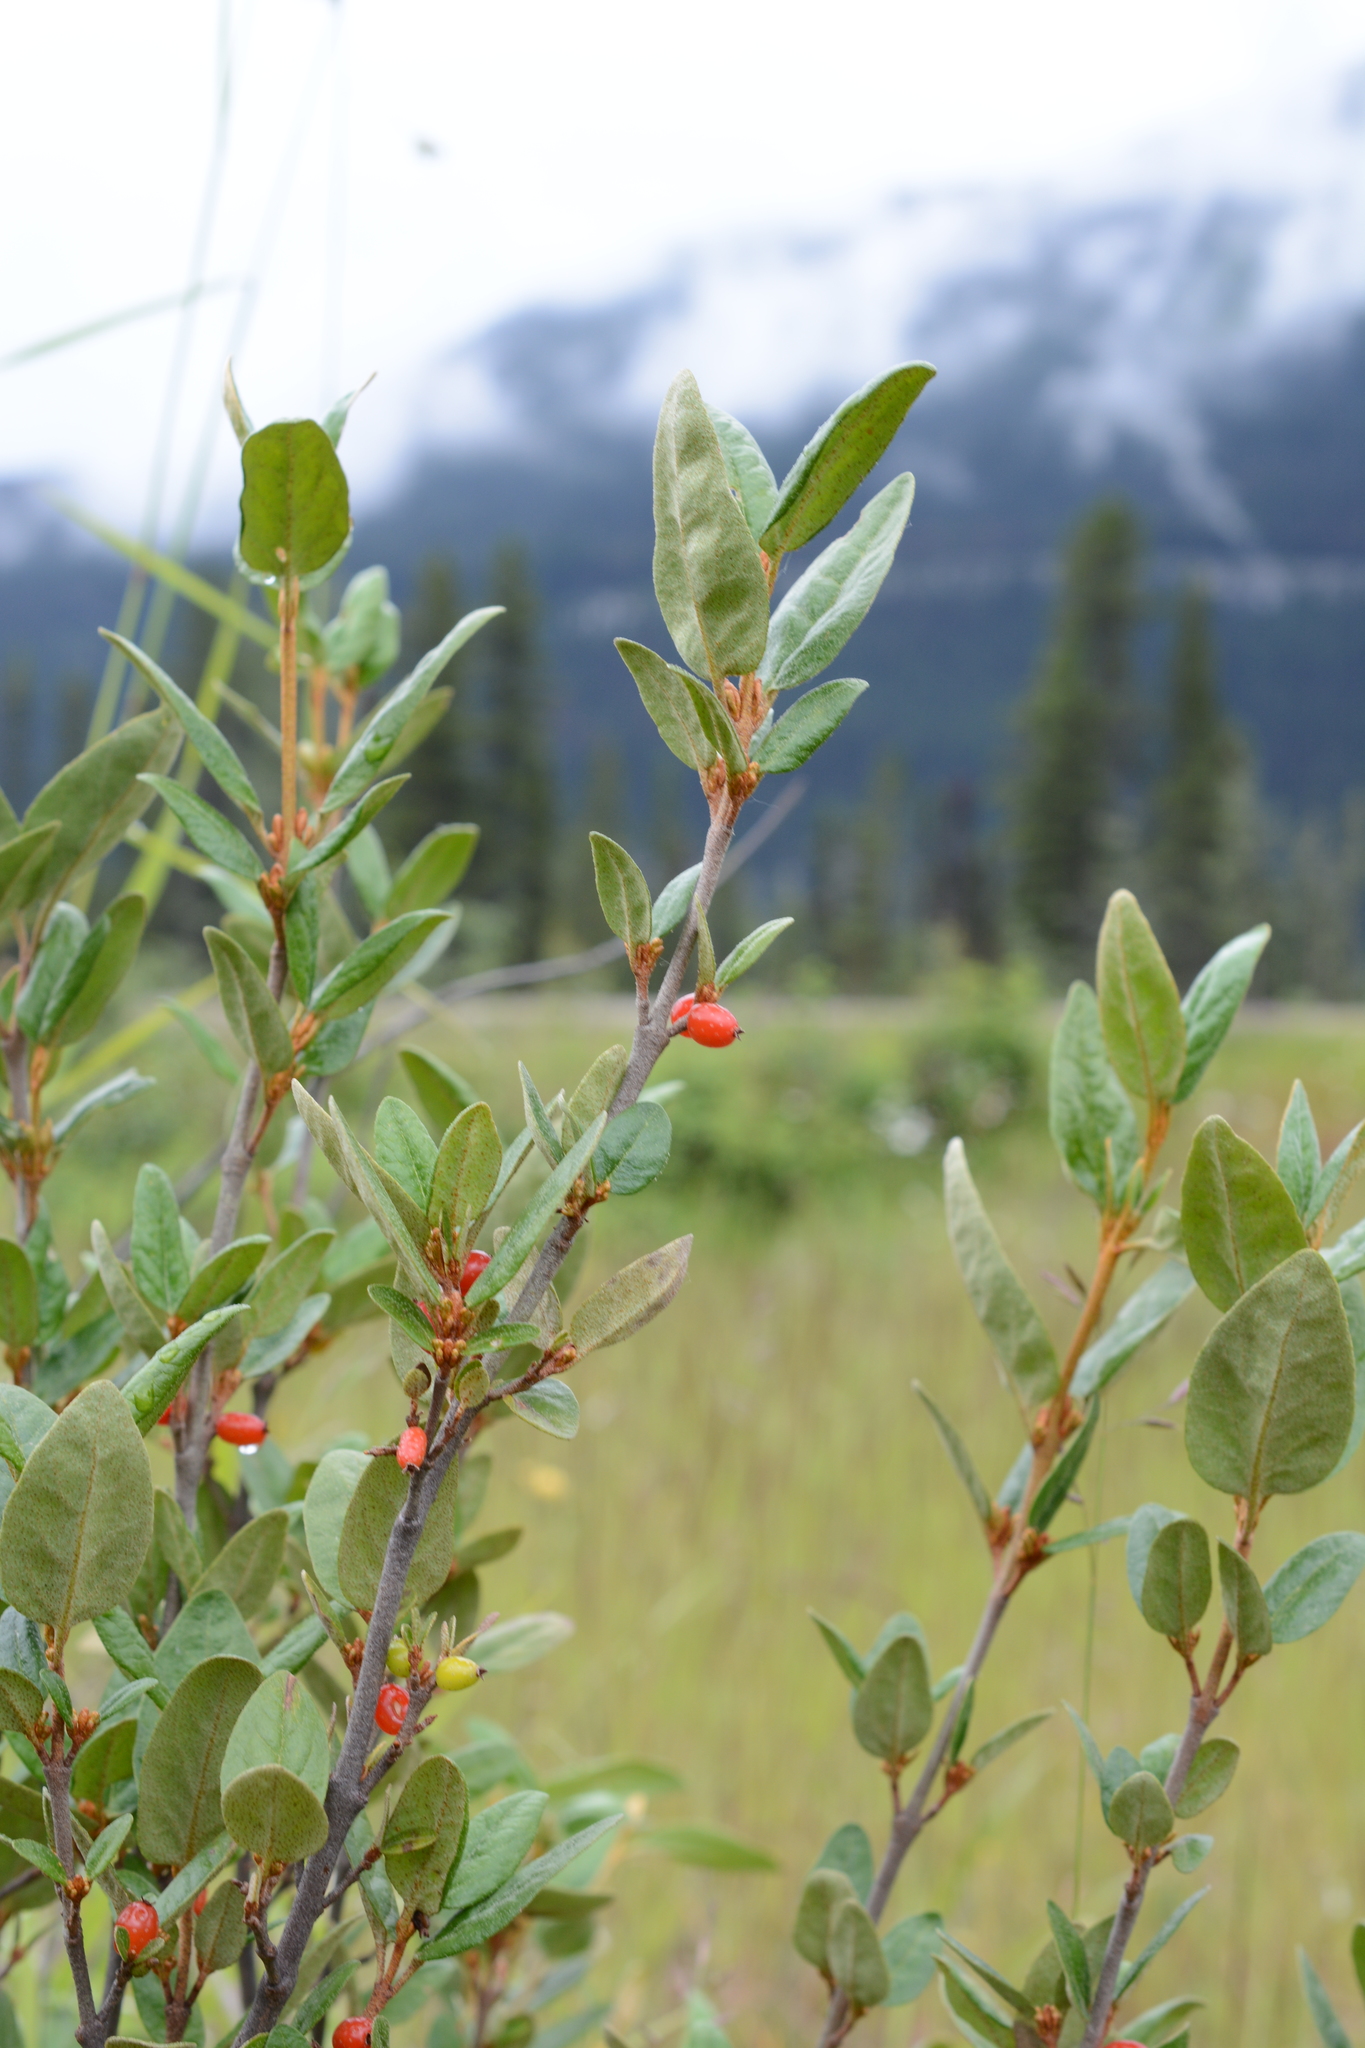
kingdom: Plantae
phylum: Tracheophyta
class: Magnoliopsida
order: Rosales
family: Elaeagnaceae
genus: Shepherdia
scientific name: Shepherdia canadensis
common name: Soapberry
